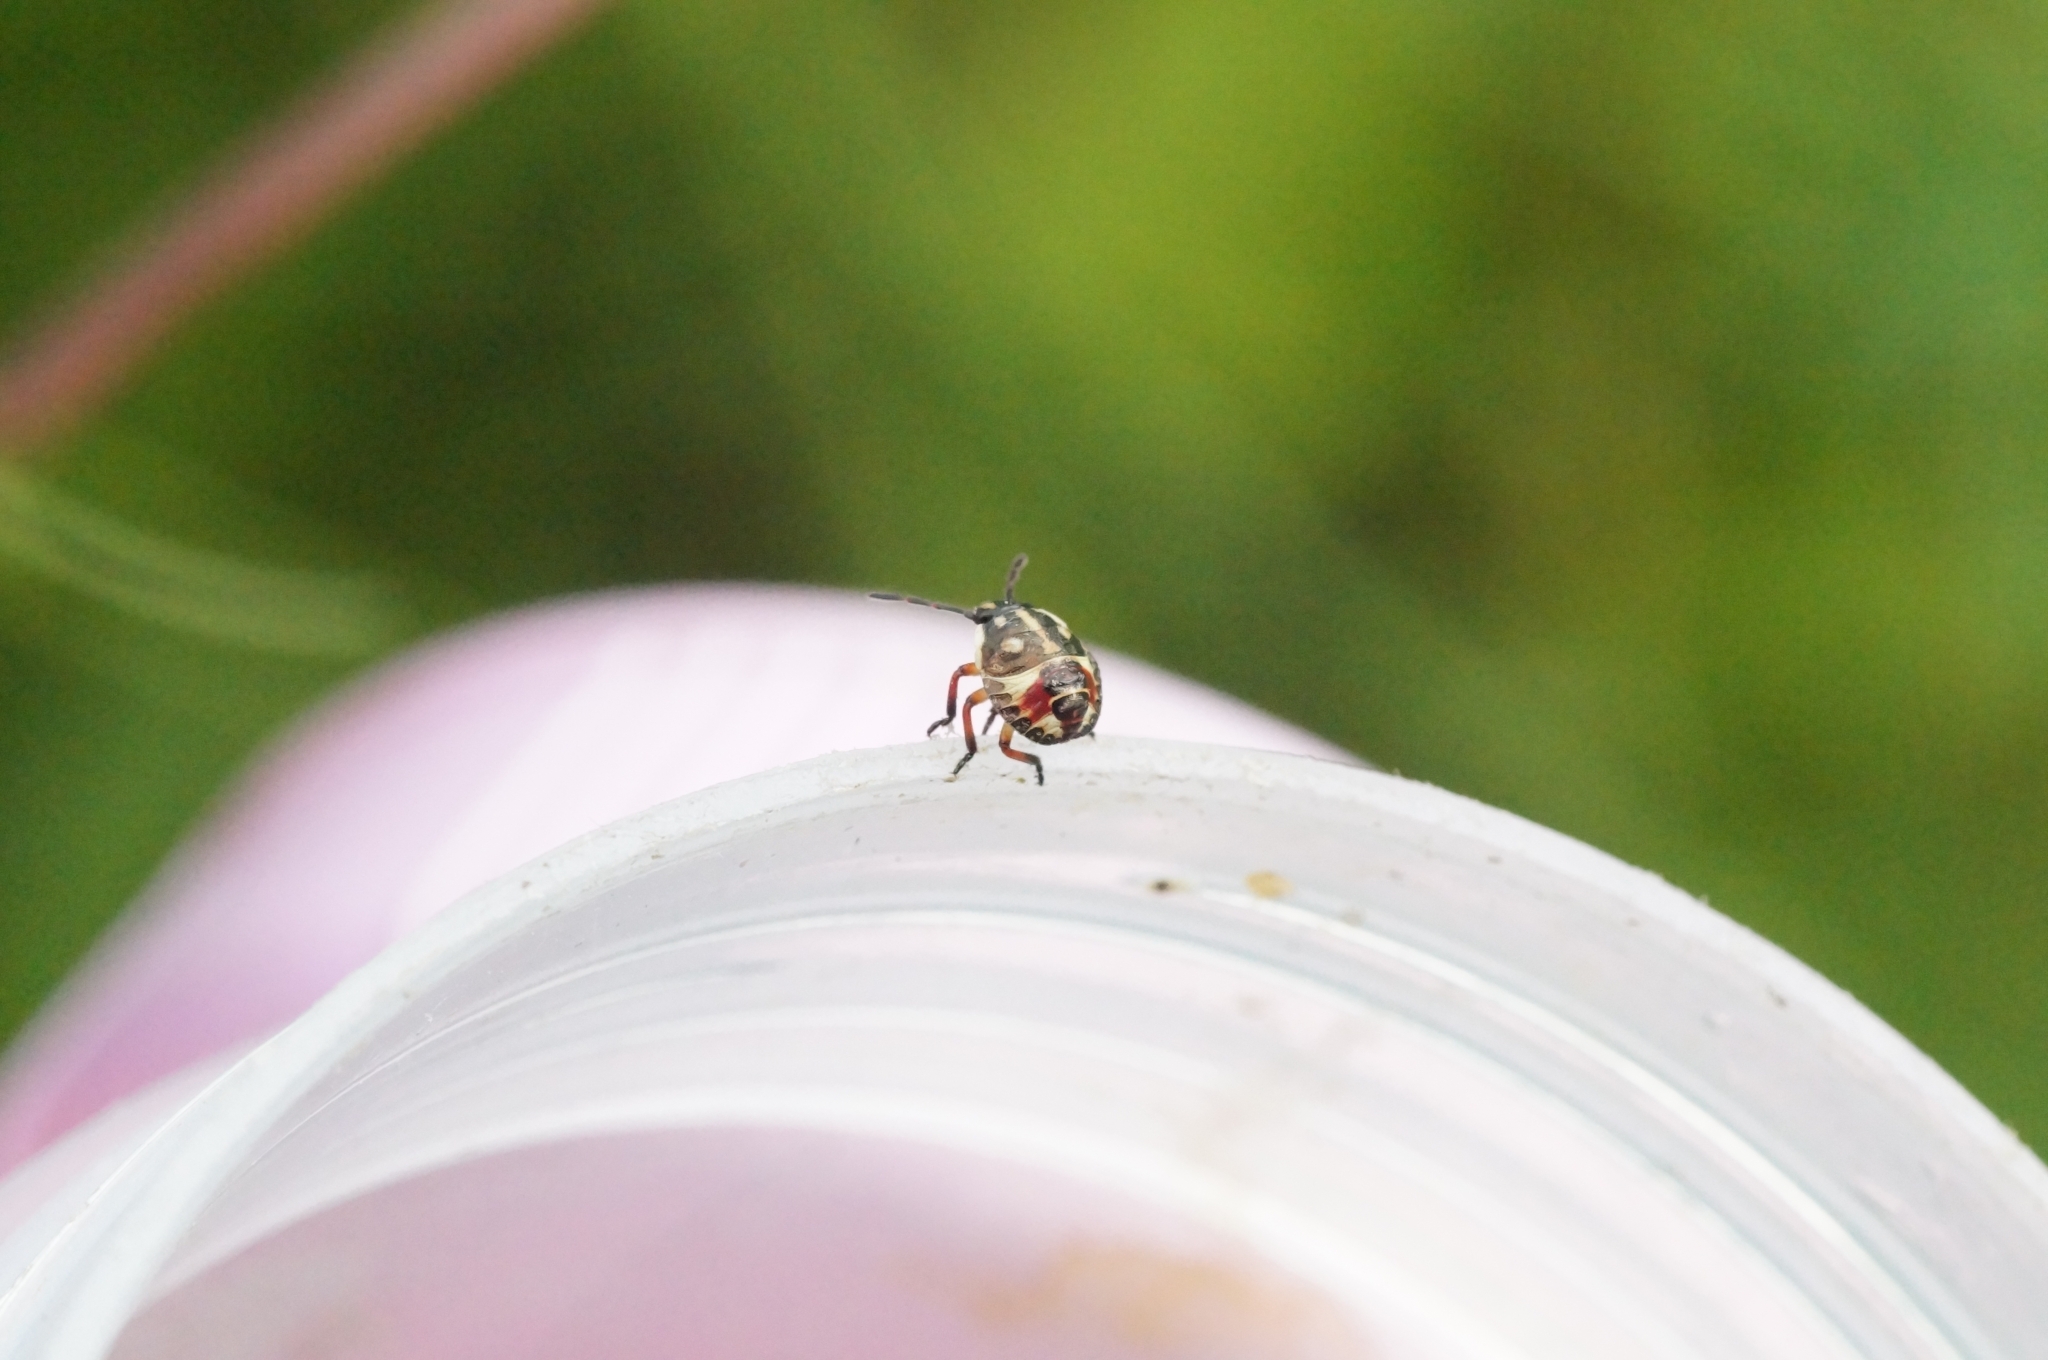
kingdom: Animalia
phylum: Arthropoda
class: Insecta
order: Hemiptera
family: Pentatomidae
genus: Carpocoris
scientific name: Carpocoris
